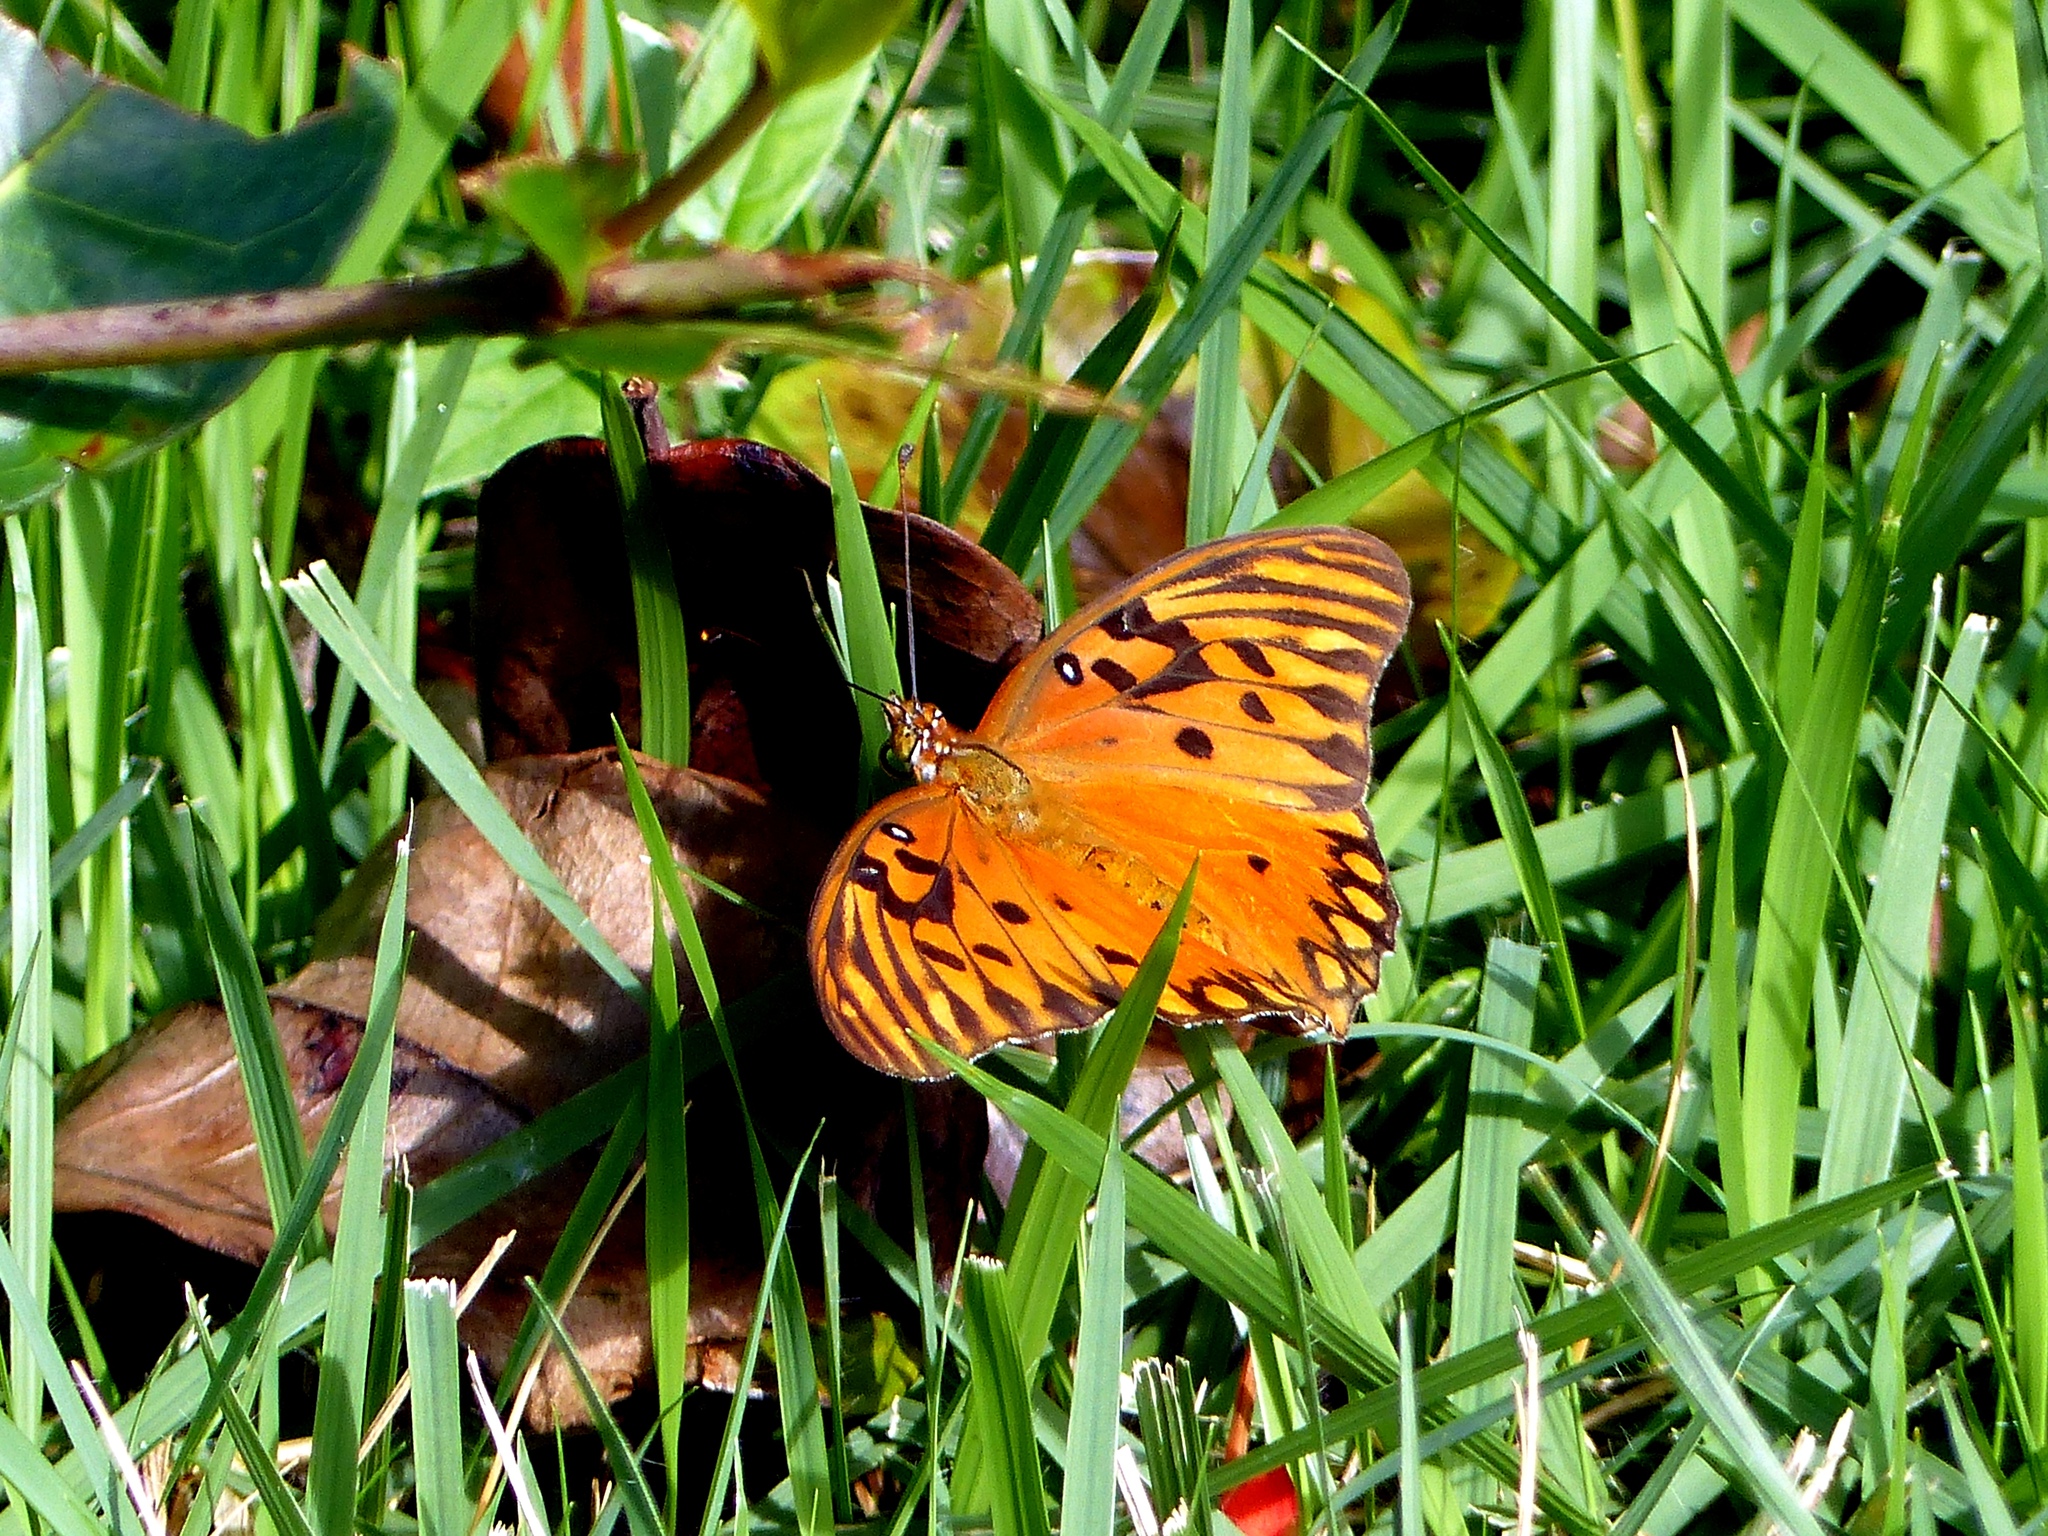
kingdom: Animalia
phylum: Arthropoda
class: Insecta
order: Lepidoptera
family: Nymphalidae
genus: Dione
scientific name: Dione vanillae
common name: Gulf fritillary
